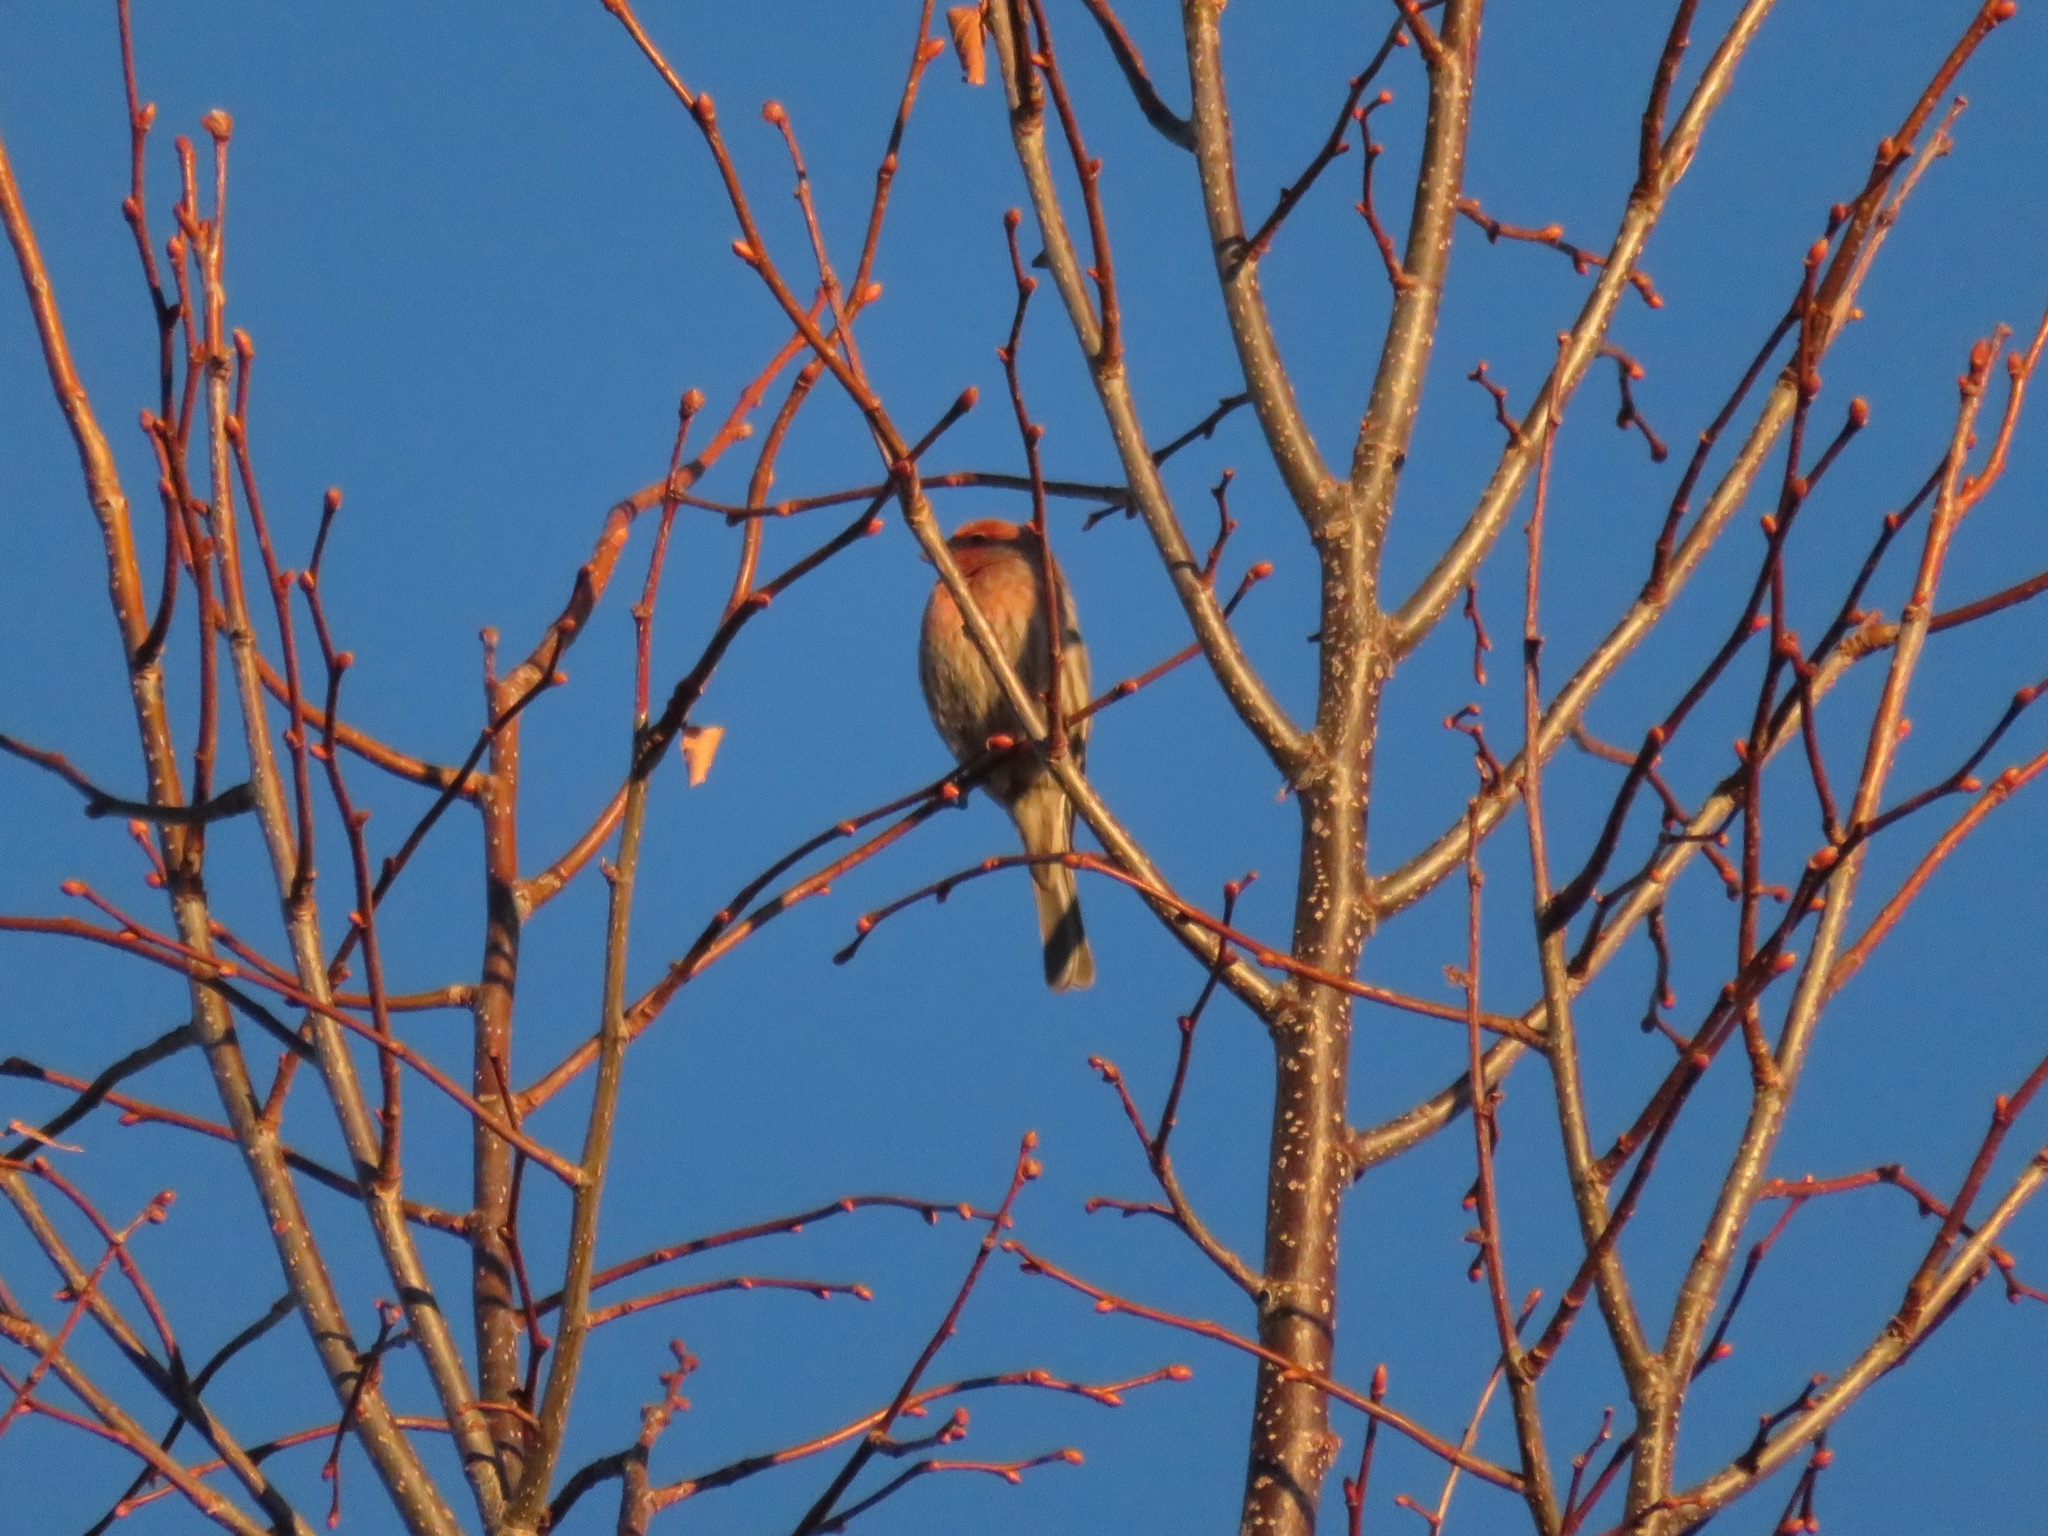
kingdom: Animalia
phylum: Chordata
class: Aves
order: Passeriformes
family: Fringillidae
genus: Haemorhous
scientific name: Haemorhous mexicanus
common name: House finch
